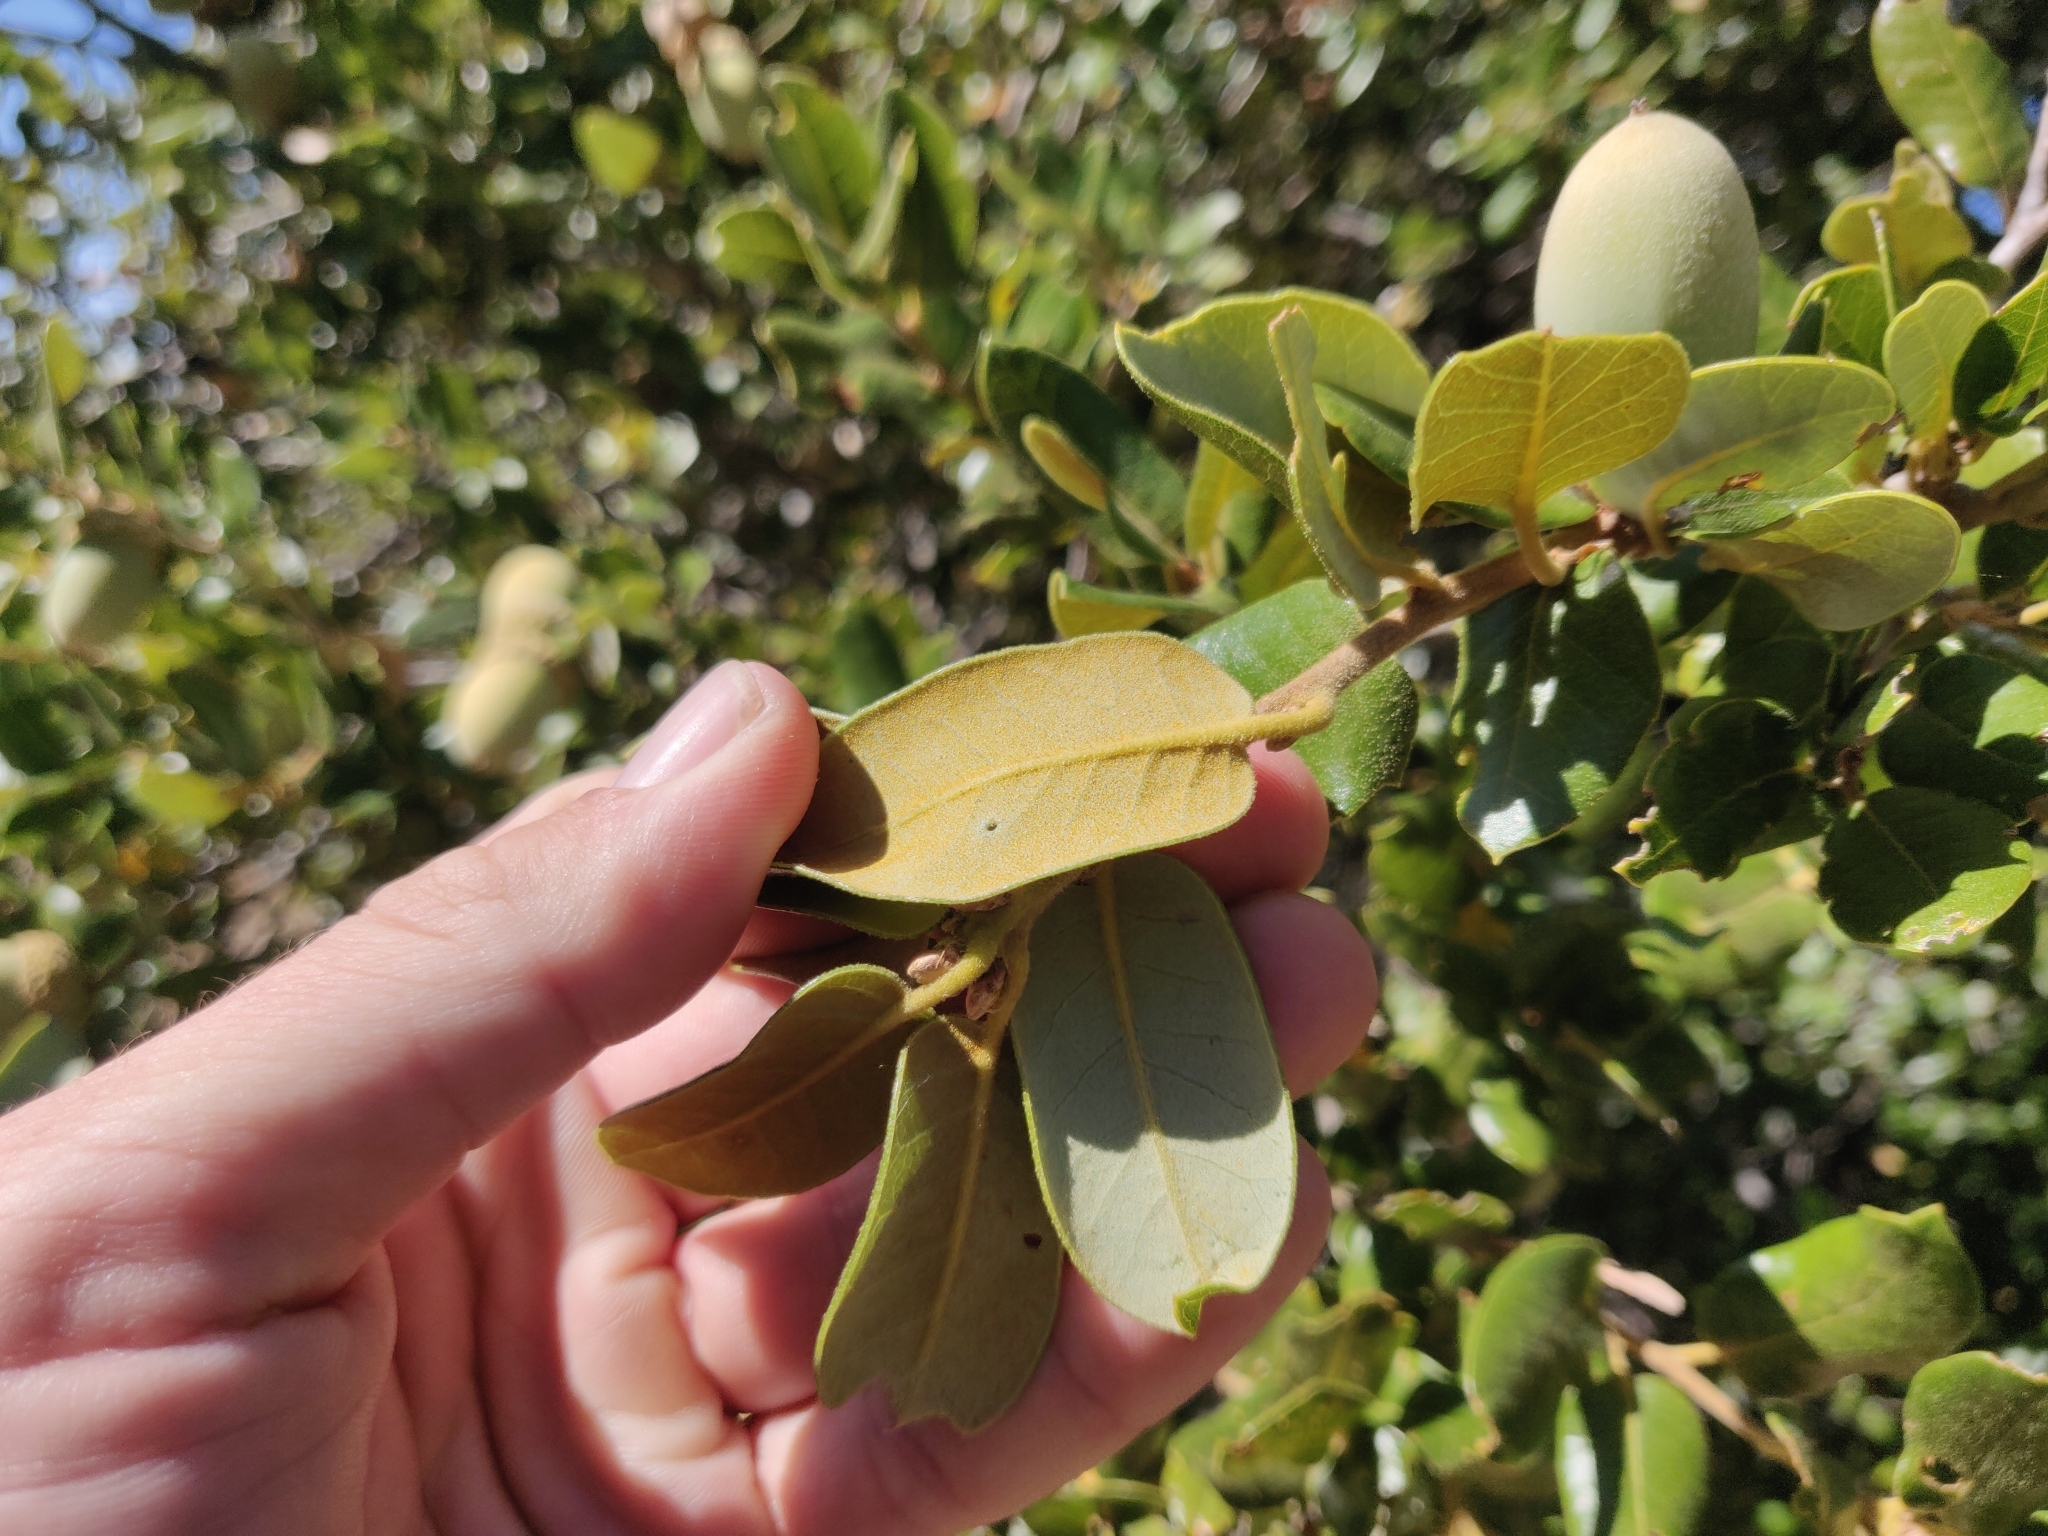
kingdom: Plantae
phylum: Tracheophyta
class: Magnoliopsida
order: Fagales
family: Fagaceae
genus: Quercus
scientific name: Quercus chrysolepis
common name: Canyon live oak
